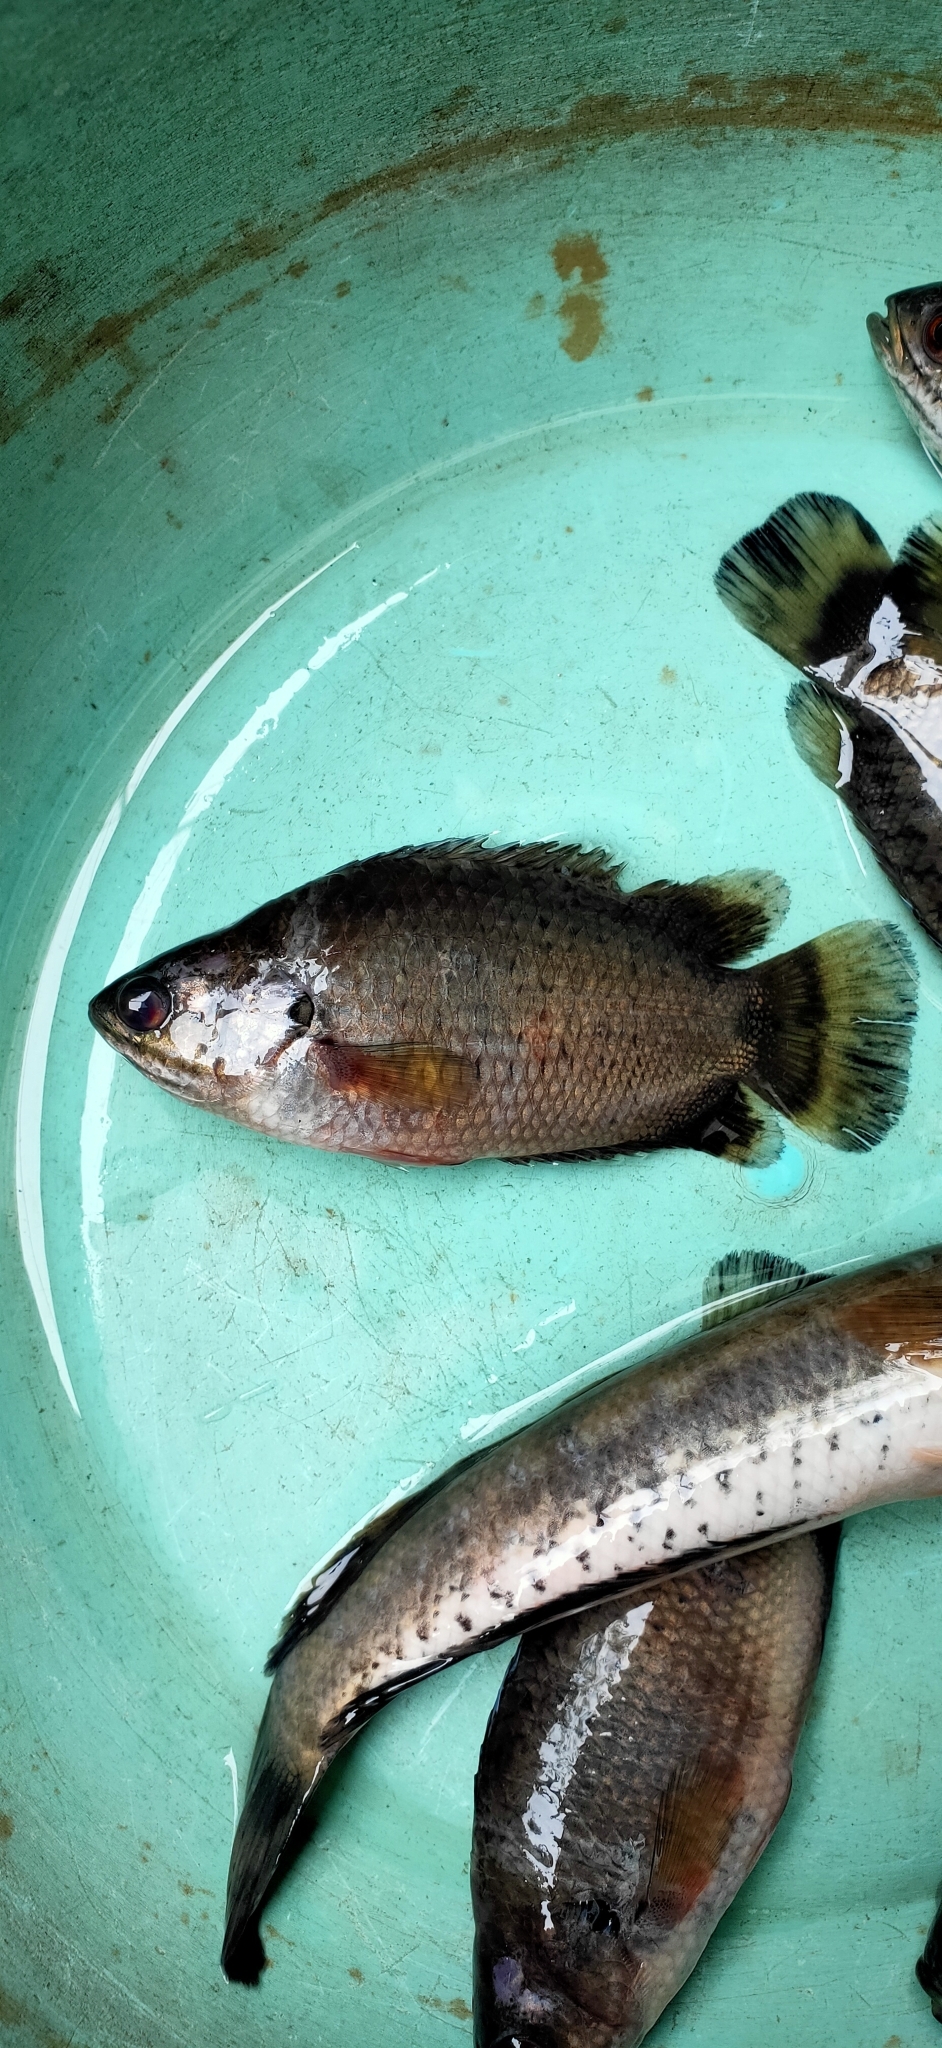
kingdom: Animalia
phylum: Chordata
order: Perciformes
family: Anabantidae
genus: Anabas
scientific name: Anabas testudineus
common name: Climbing perch
